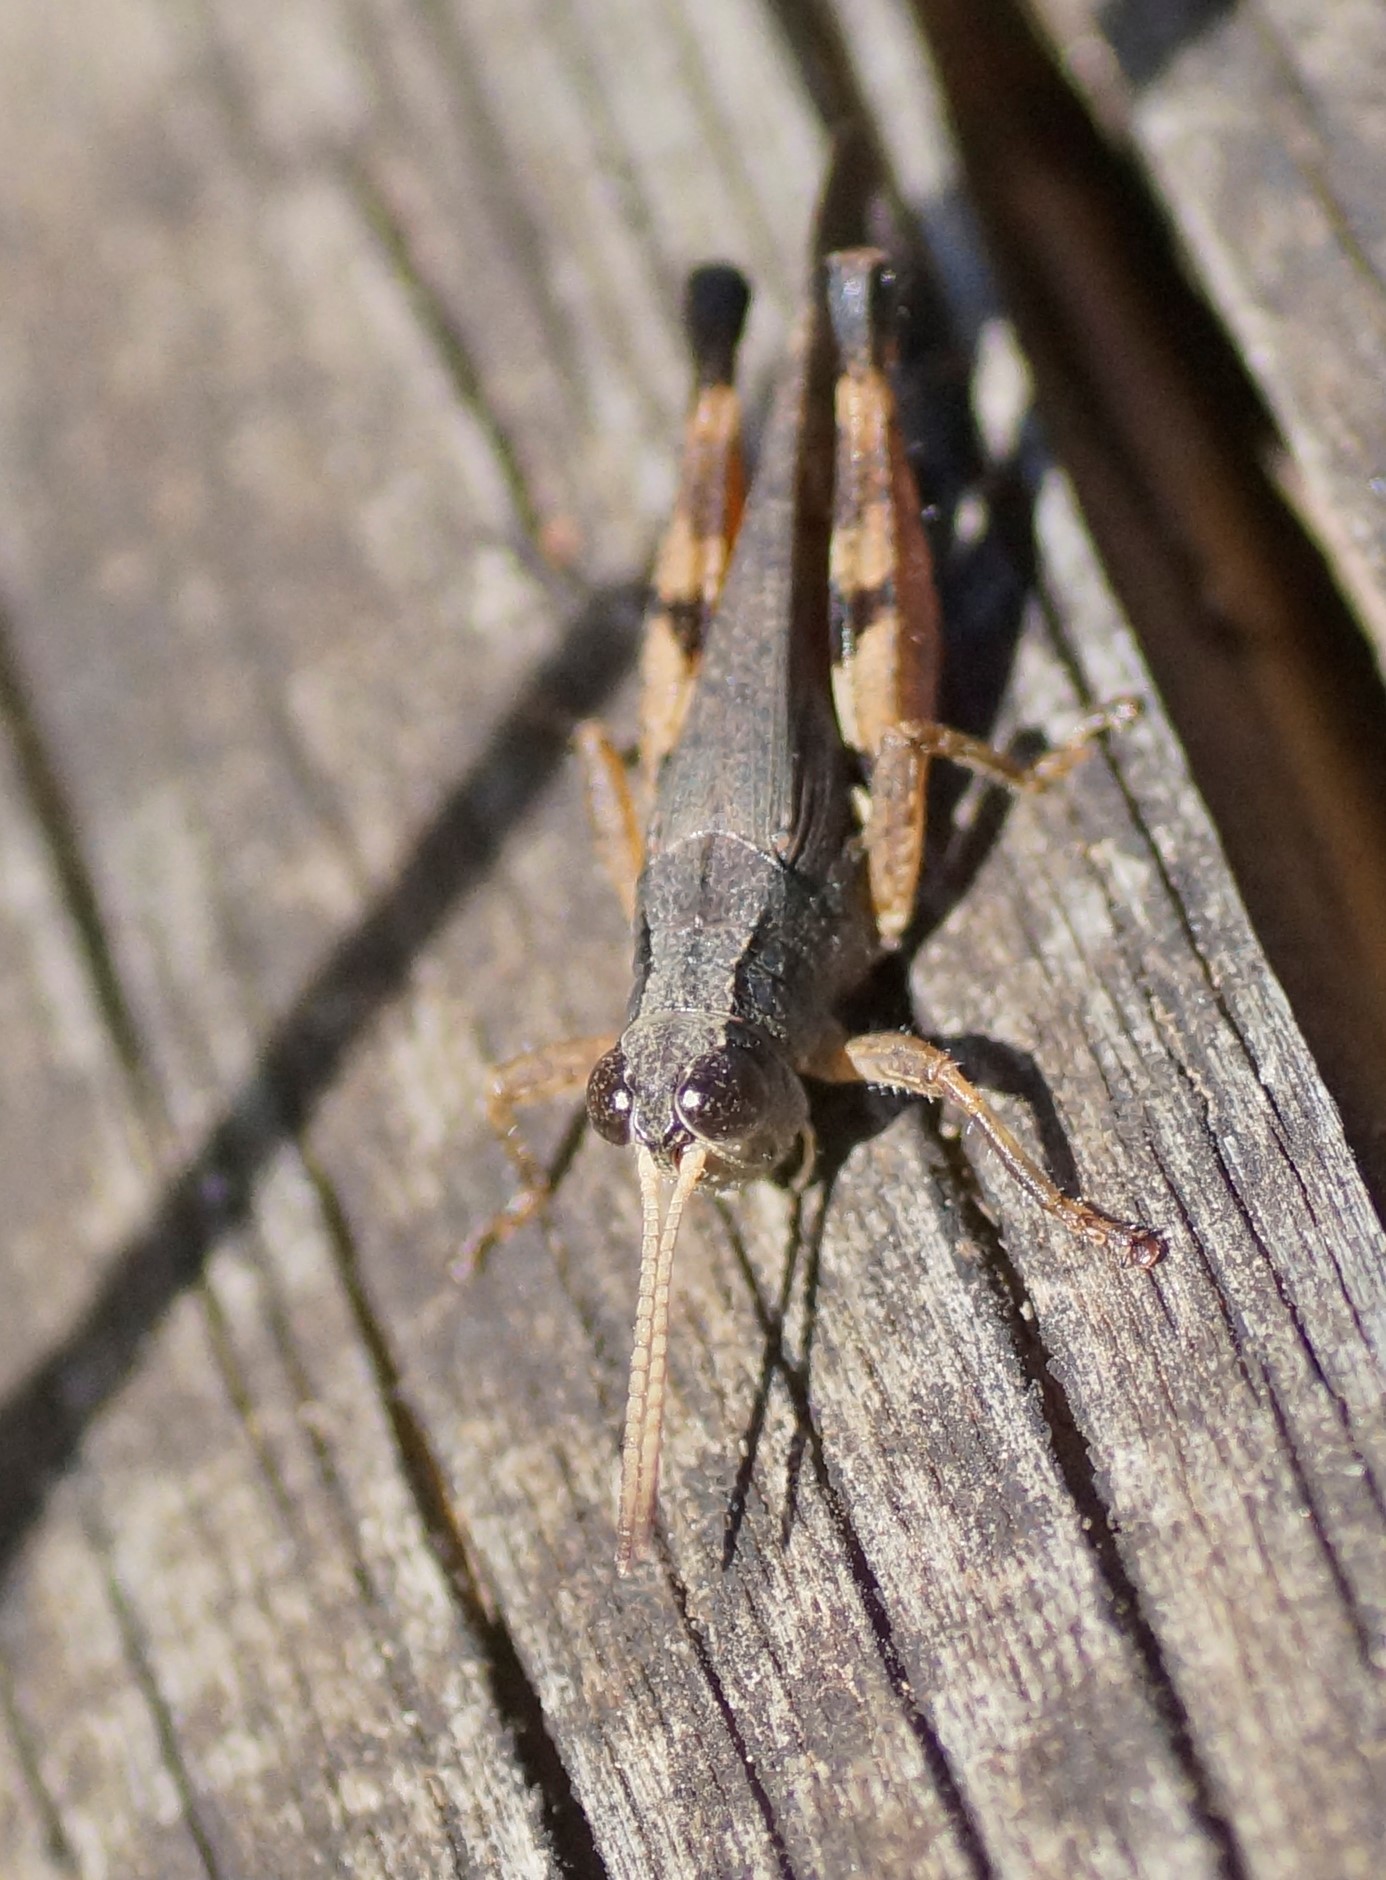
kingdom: Animalia
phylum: Arthropoda
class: Insecta
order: Orthoptera
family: Acrididae
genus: Phaulacridium
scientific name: Phaulacridium vittatum
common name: Wingless grasshopper
